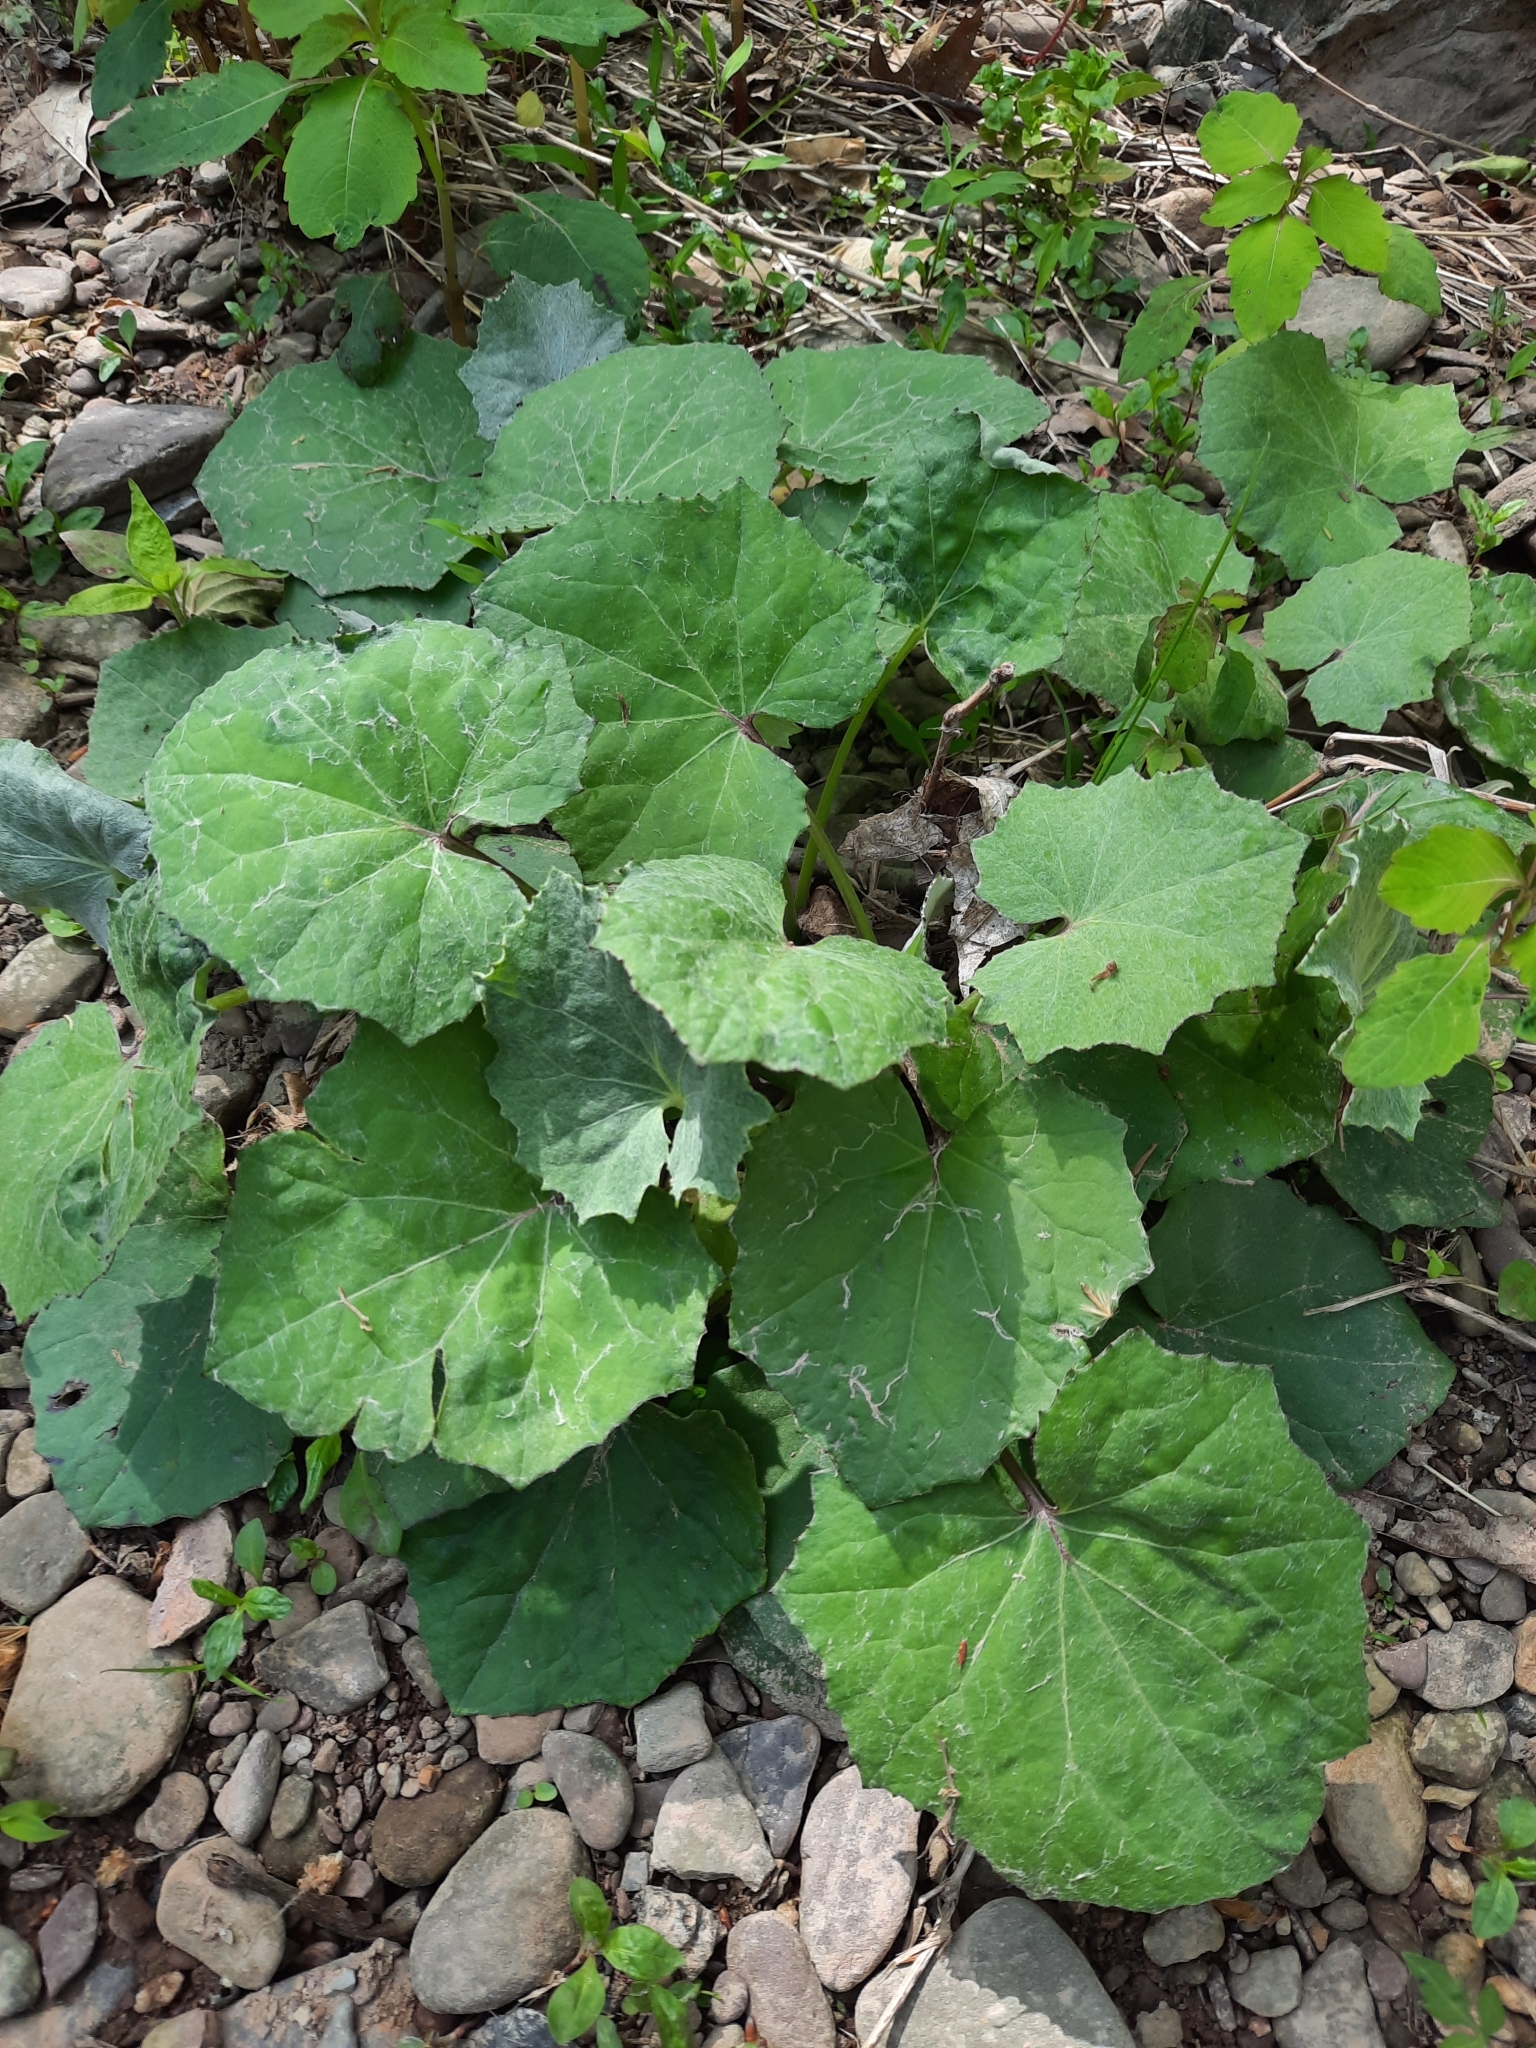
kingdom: Plantae
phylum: Tracheophyta
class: Magnoliopsida
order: Asterales
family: Asteraceae
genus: Tussilago
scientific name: Tussilago farfara
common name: Coltsfoot
